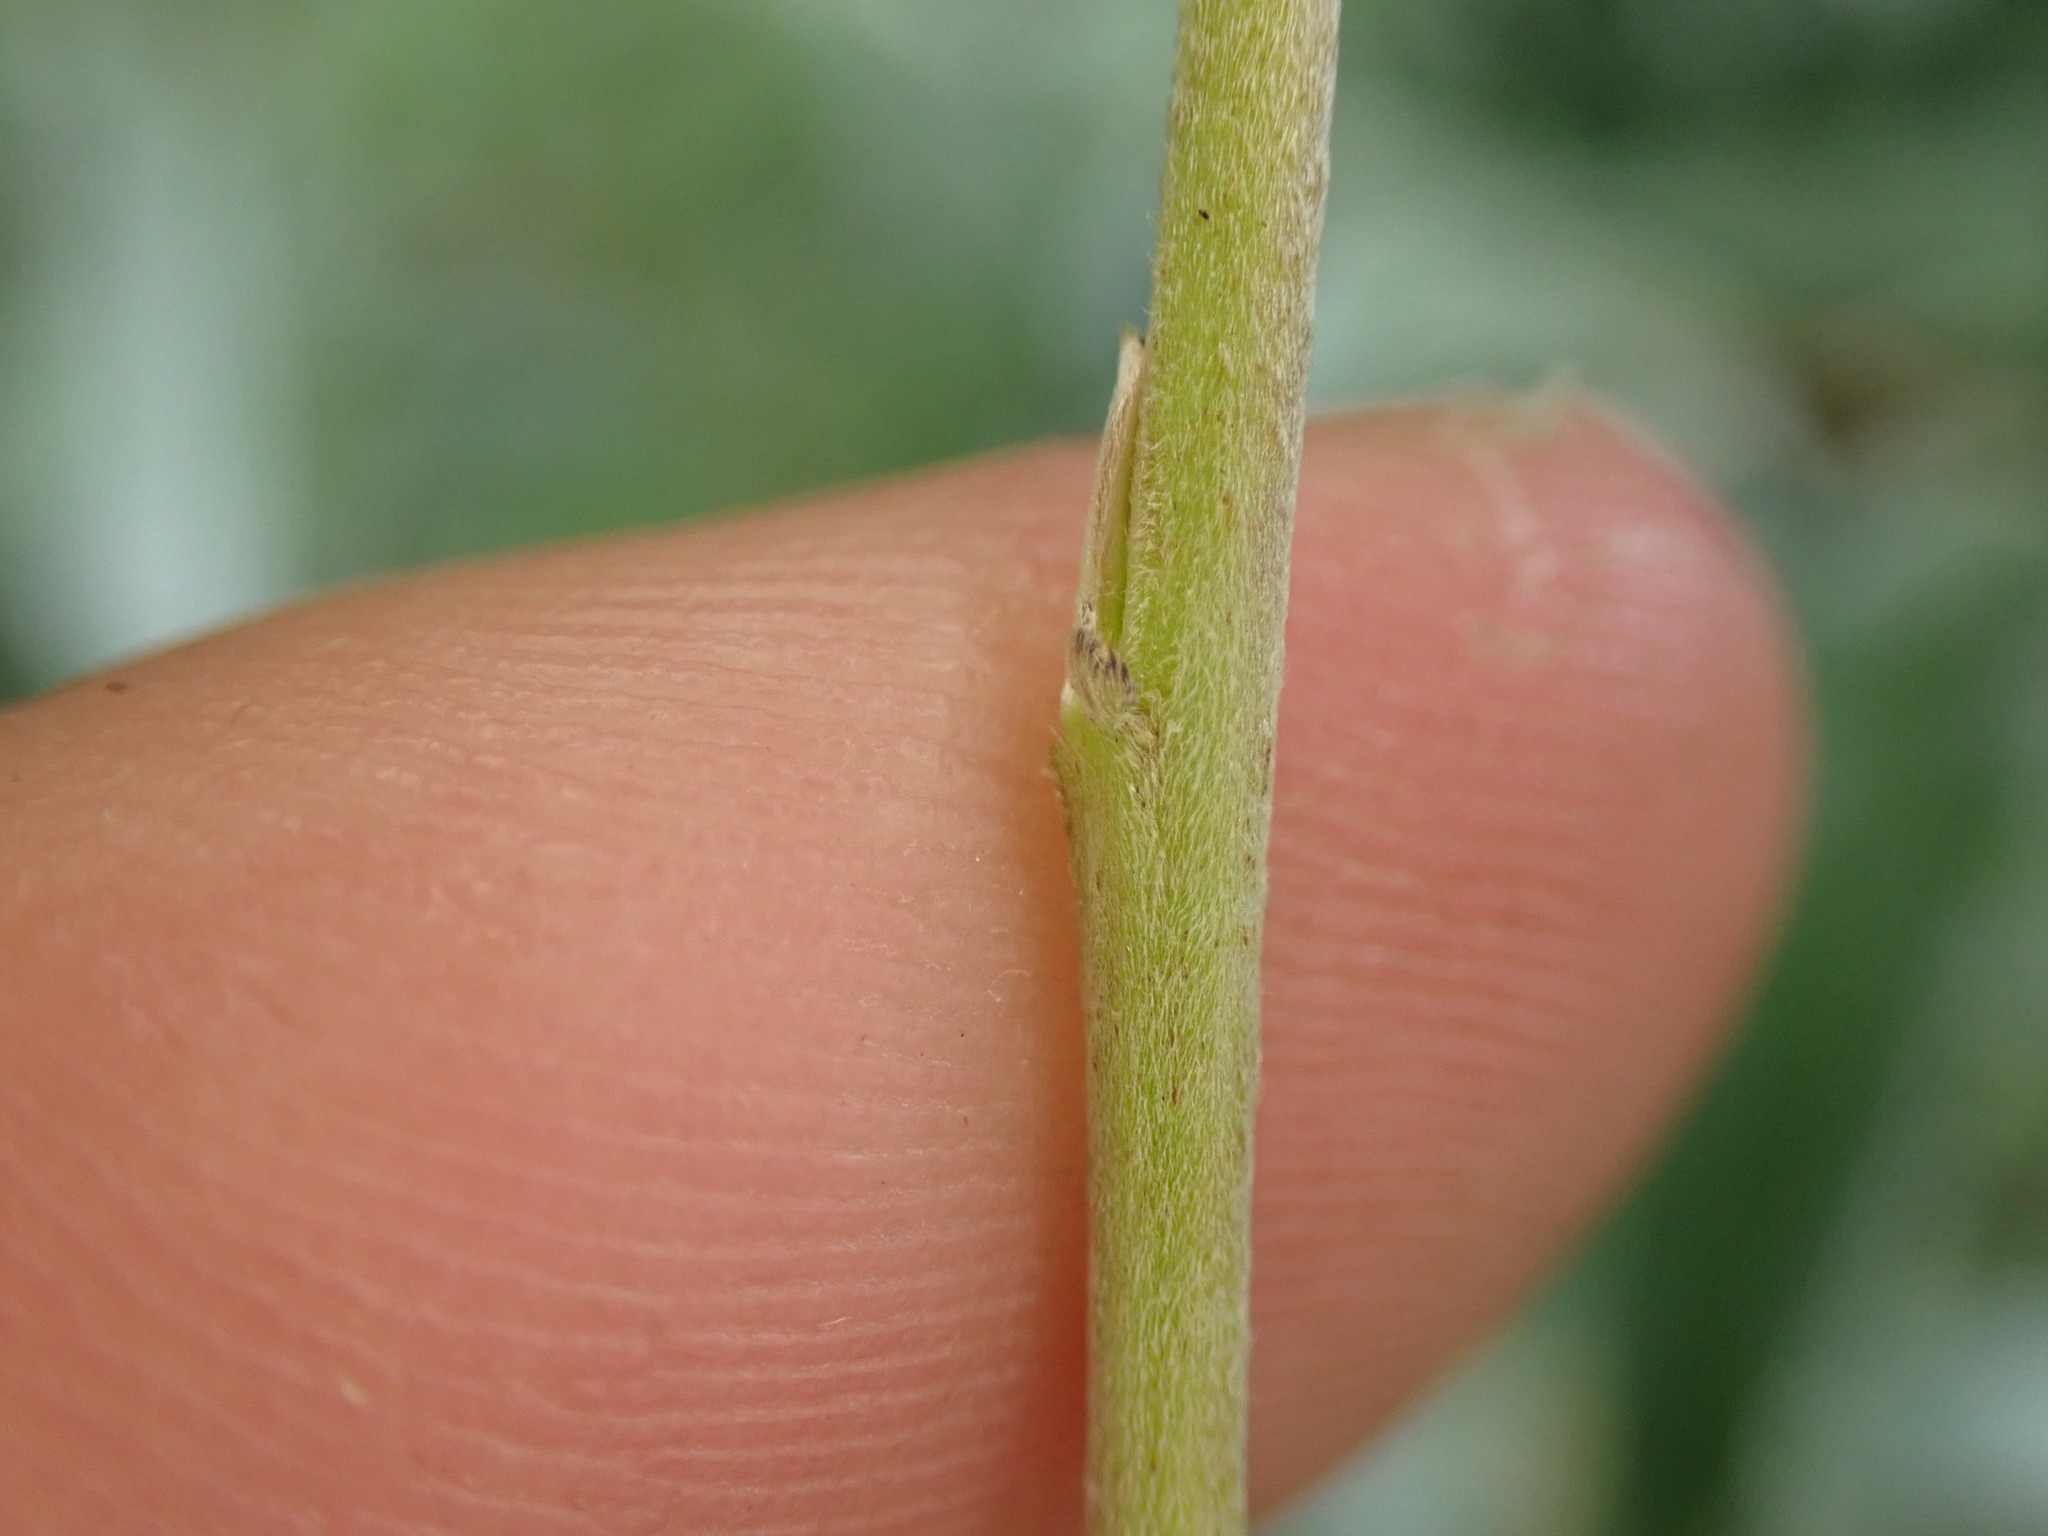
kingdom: Plantae
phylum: Tracheophyta
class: Magnoliopsida
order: Malpighiales
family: Salicaceae
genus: Salix
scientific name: Salix alba
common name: White willow
